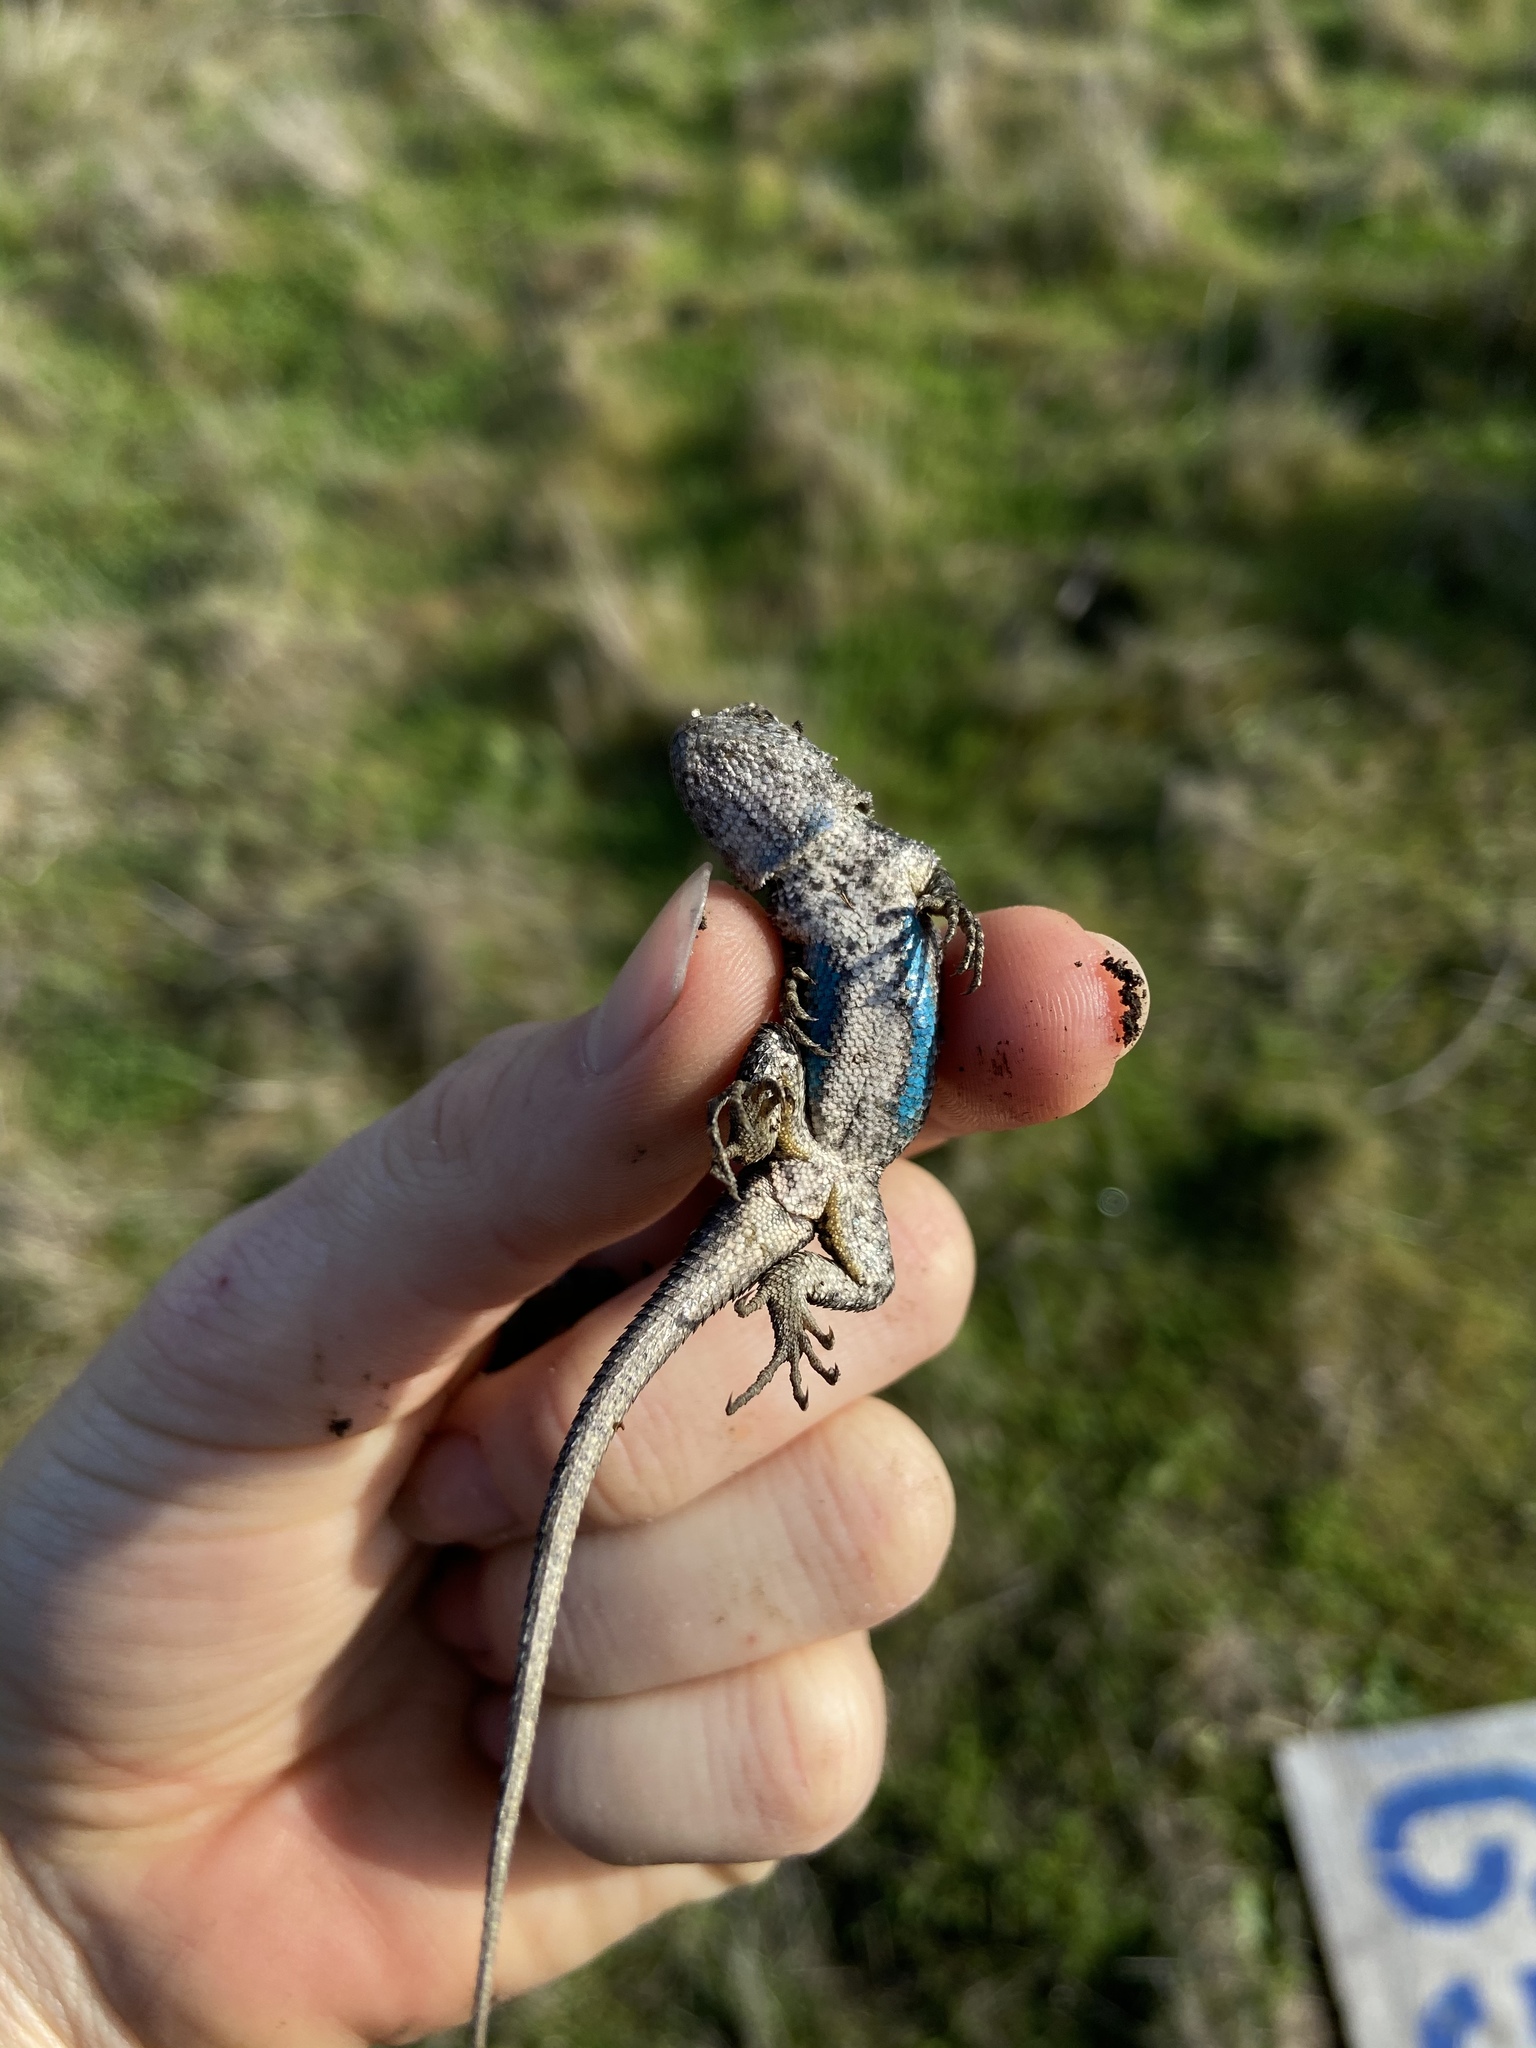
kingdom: Animalia
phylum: Chordata
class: Squamata
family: Phrynosomatidae
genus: Sceloporus
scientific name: Sceloporus occidentalis
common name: Western fence lizard
